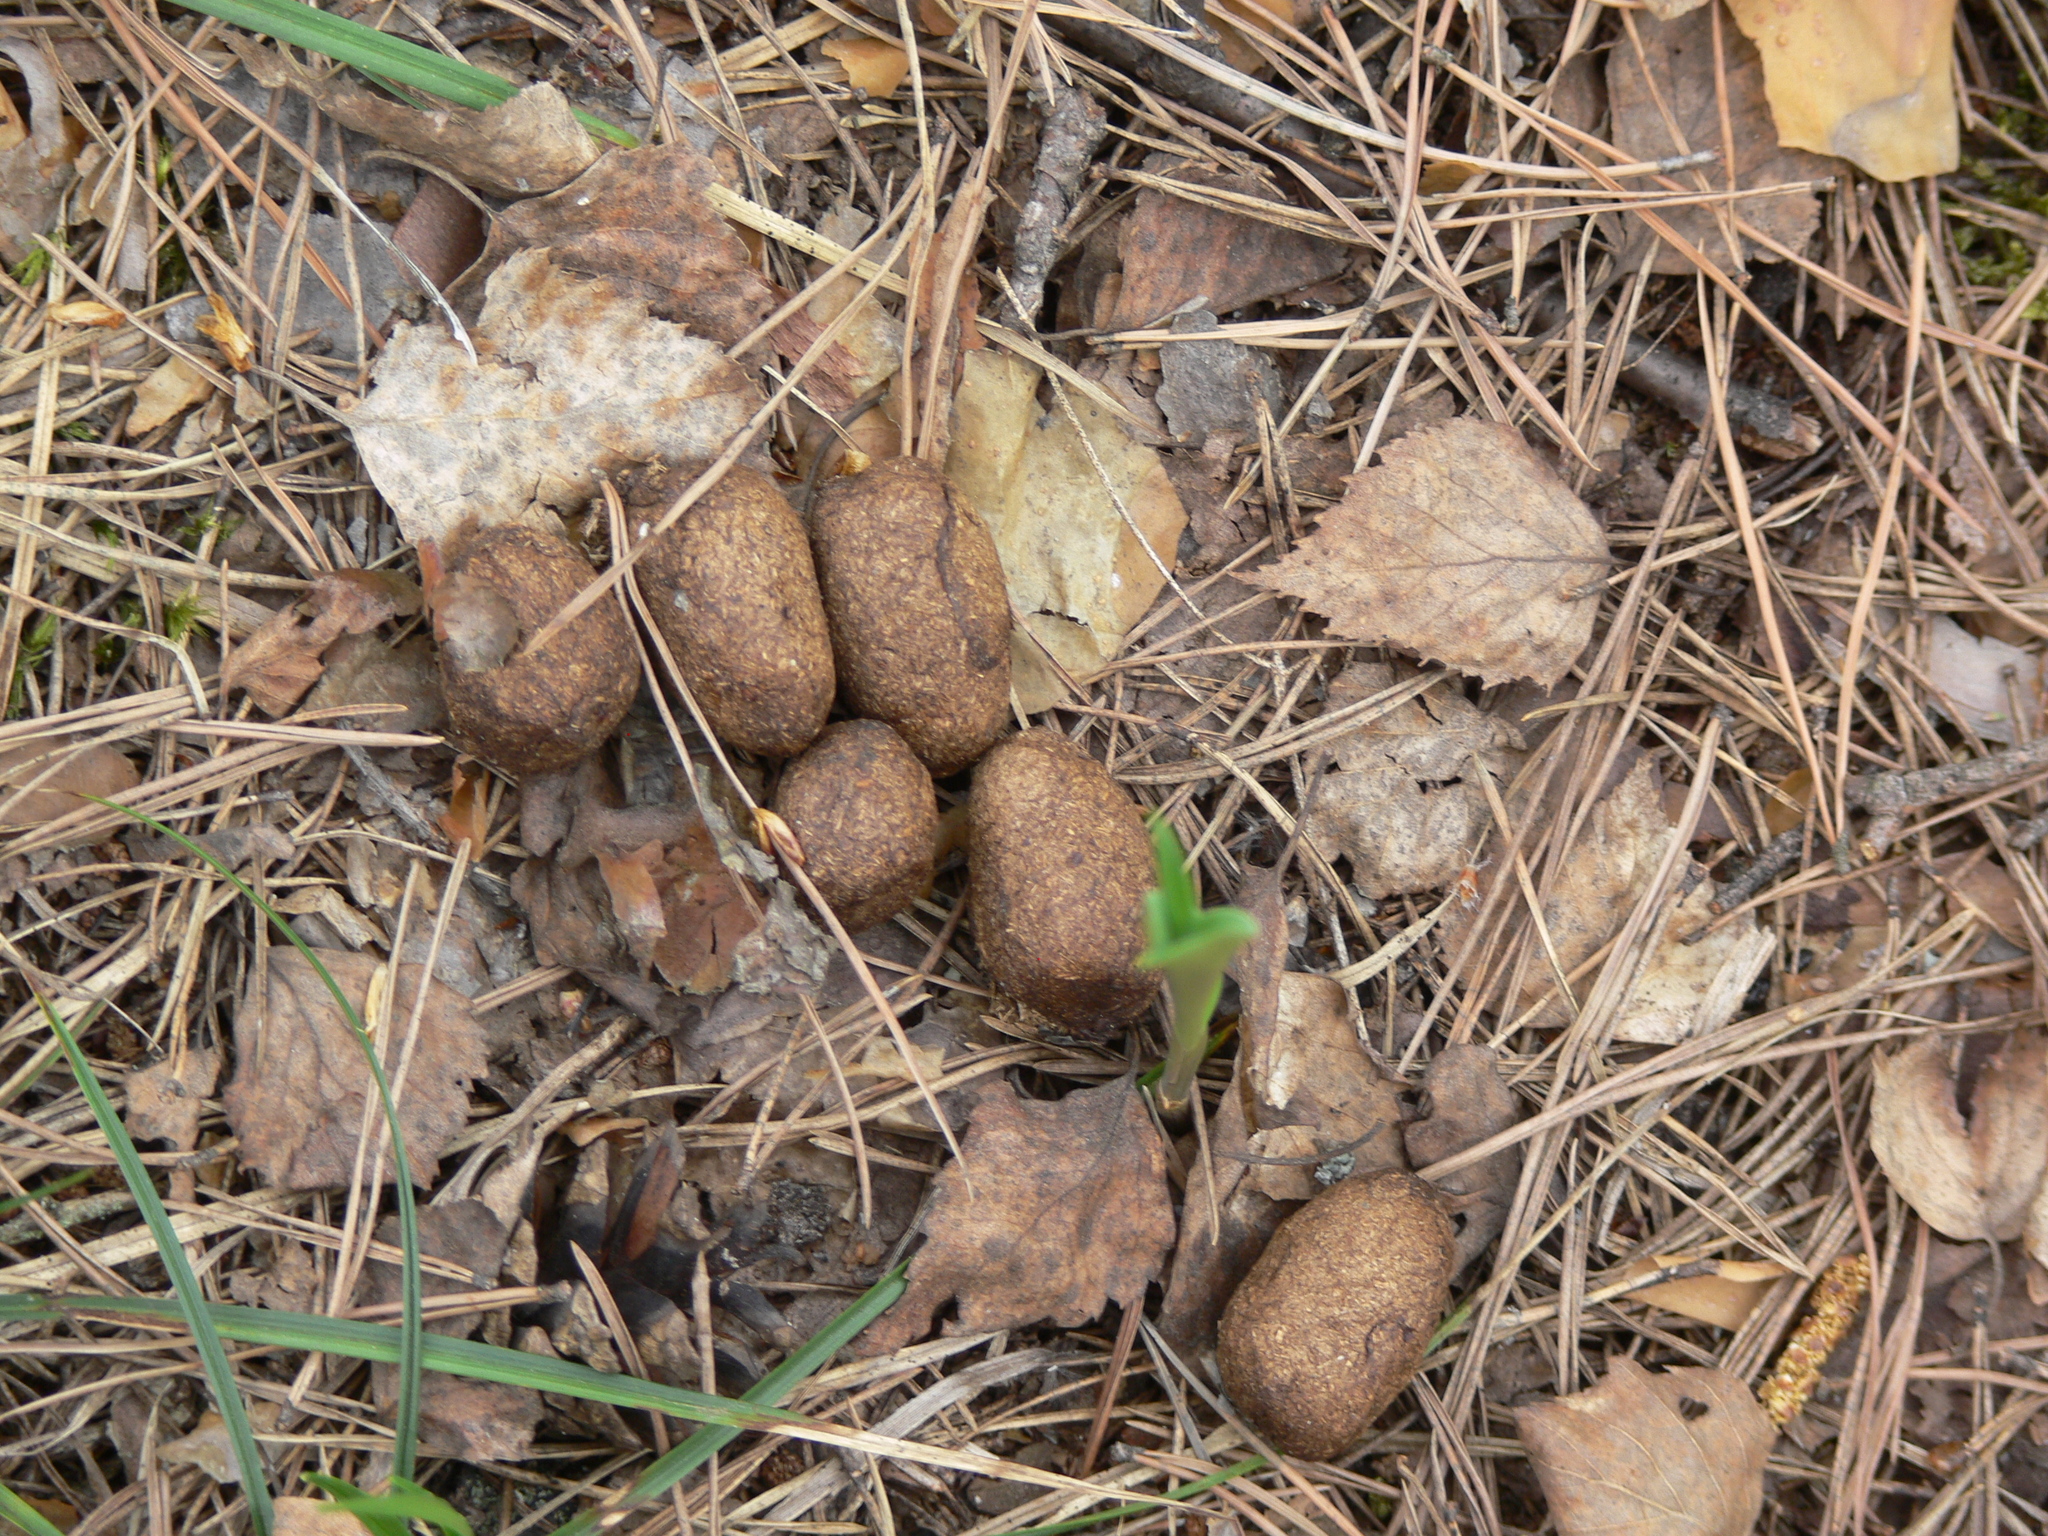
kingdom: Animalia
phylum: Chordata
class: Mammalia
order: Artiodactyla
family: Cervidae
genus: Alces
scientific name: Alces alces
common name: Moose
